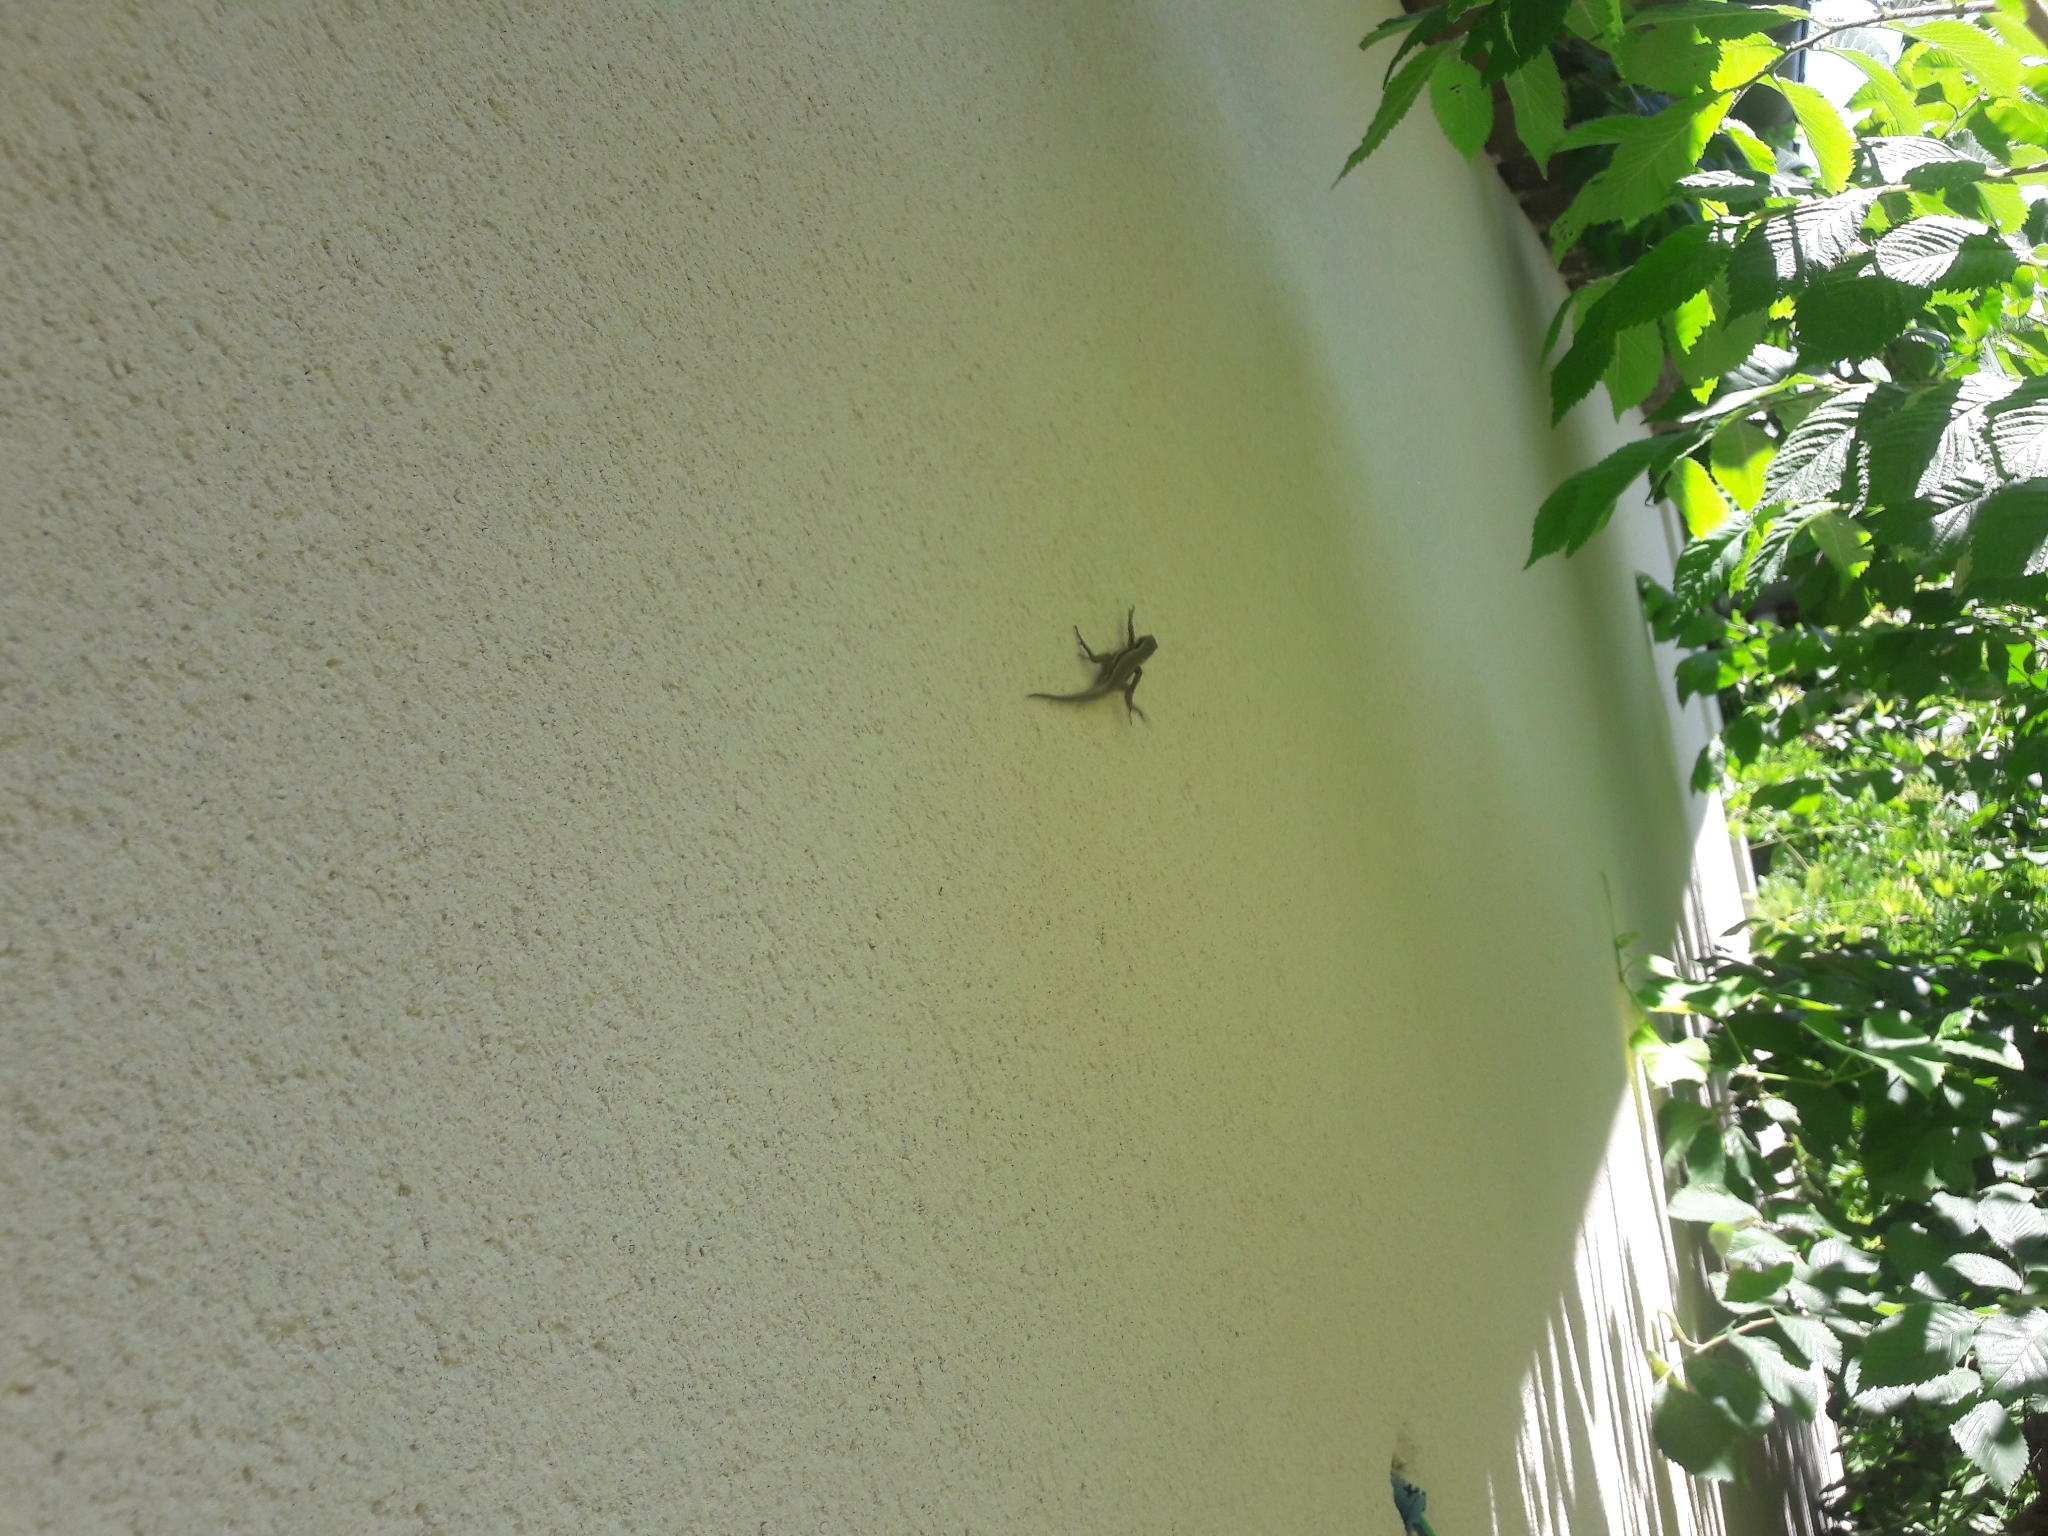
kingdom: Animalia
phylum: Chordata
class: Squamata
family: Lacertidae
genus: Podarcis
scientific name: Podarcis muralis
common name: Common wall lizard
